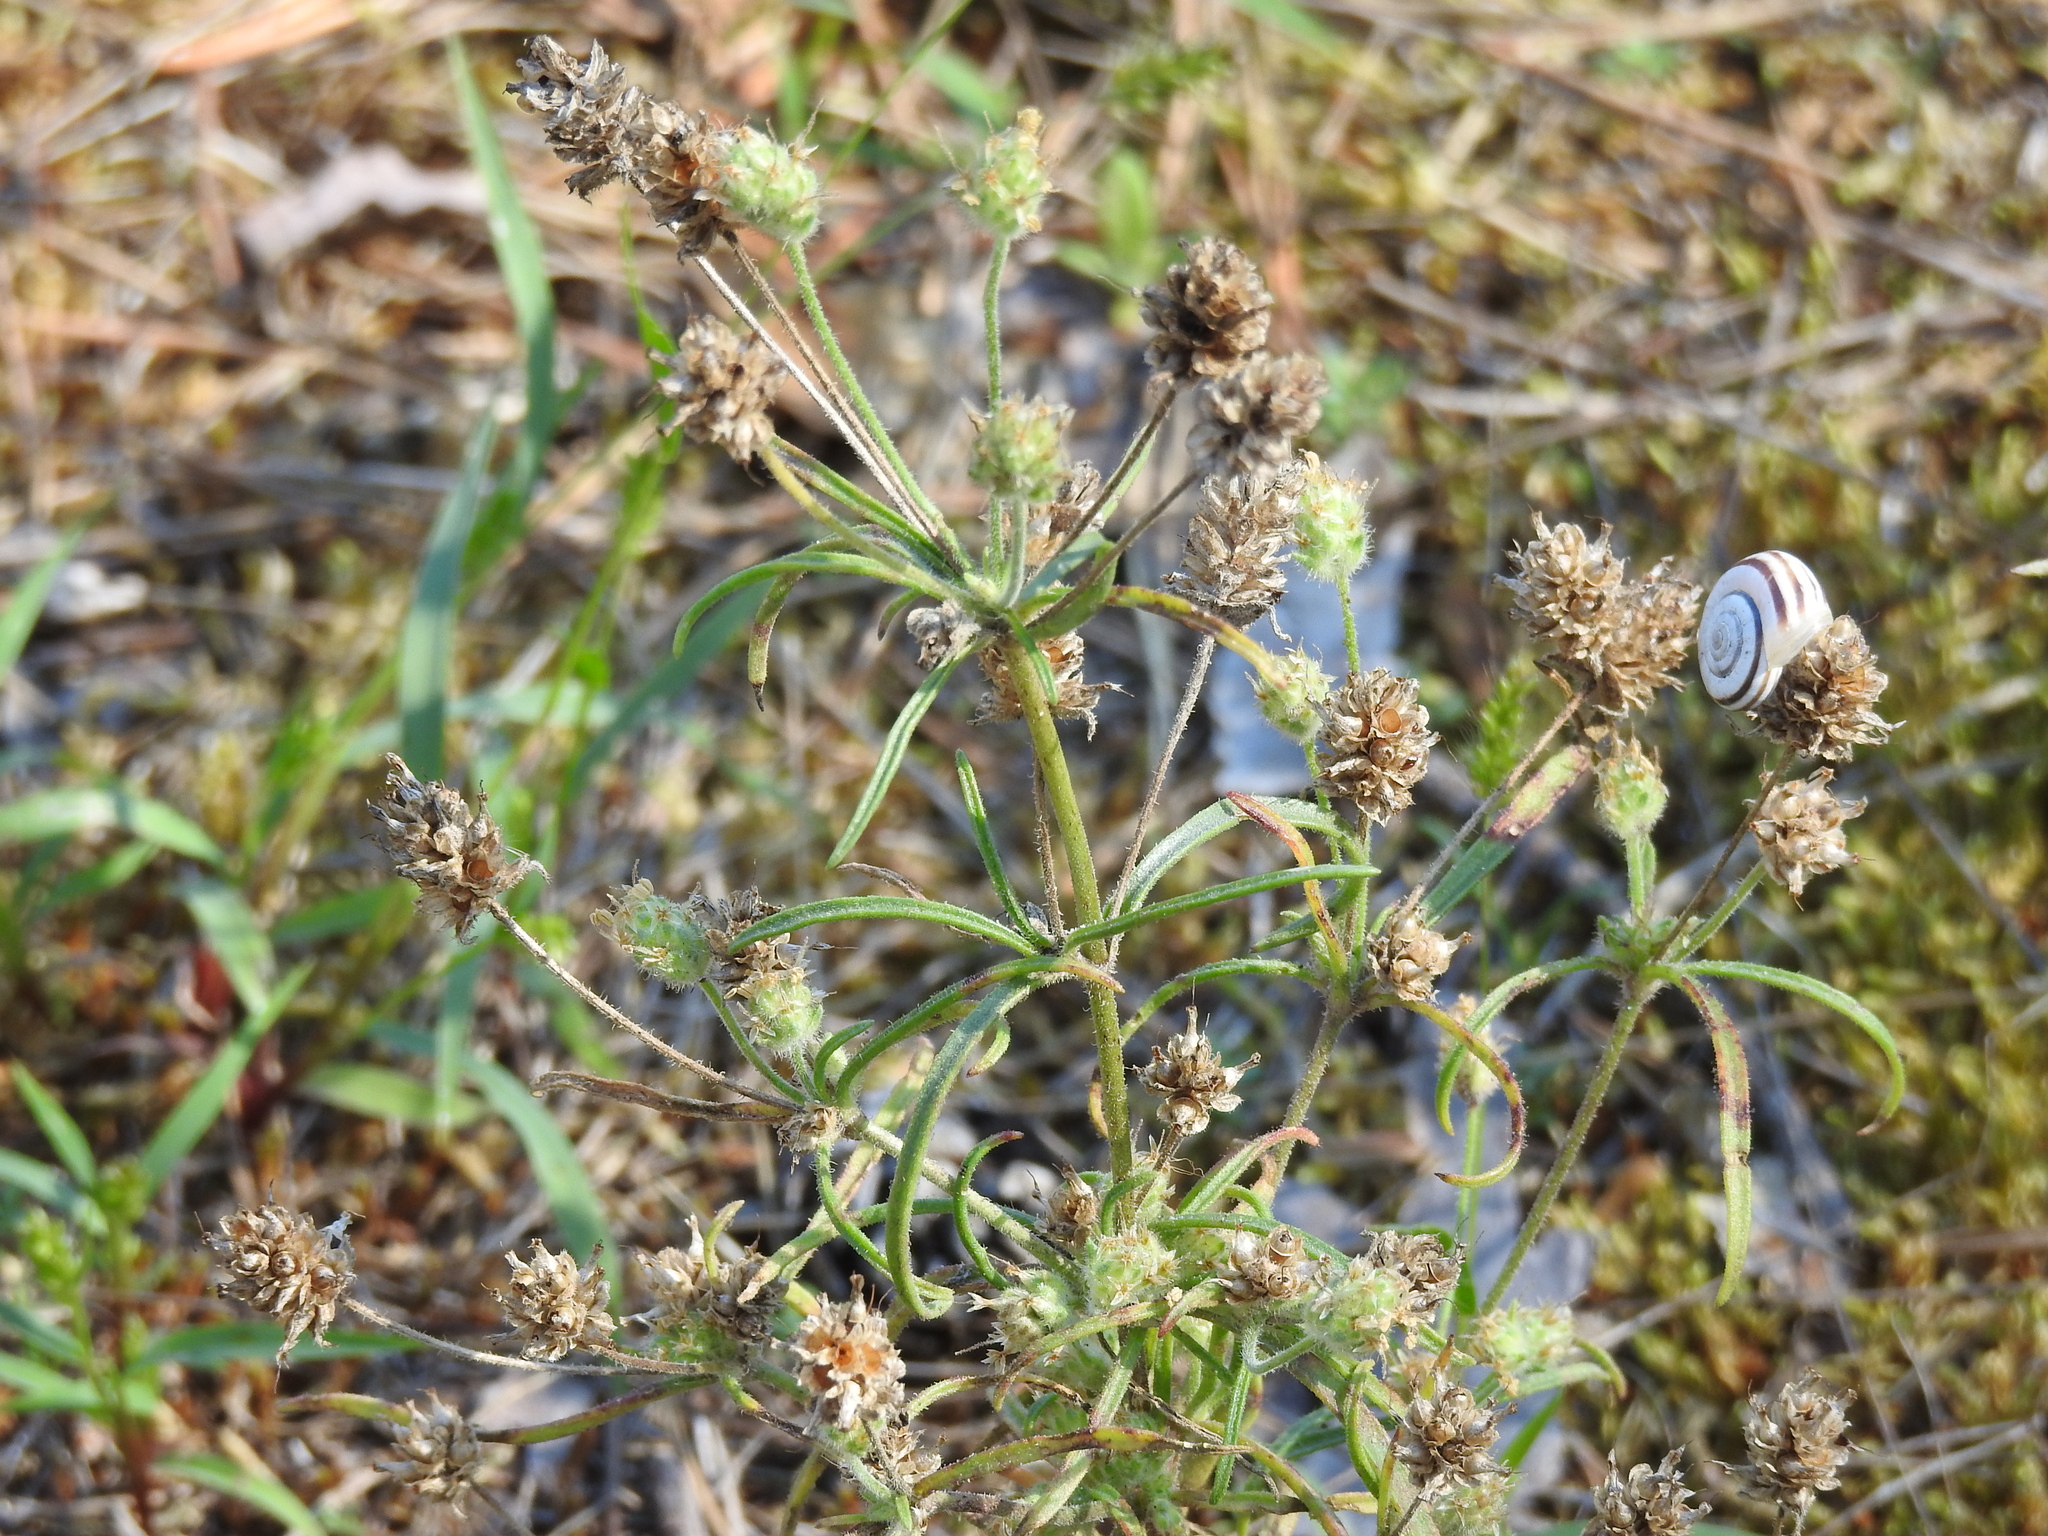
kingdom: Plantae
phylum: Tracheophyta
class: Magnoliopsida
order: Lamiales
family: Plantaginaceae
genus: Plantago
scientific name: Plantago arenaria
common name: Branched plantain
